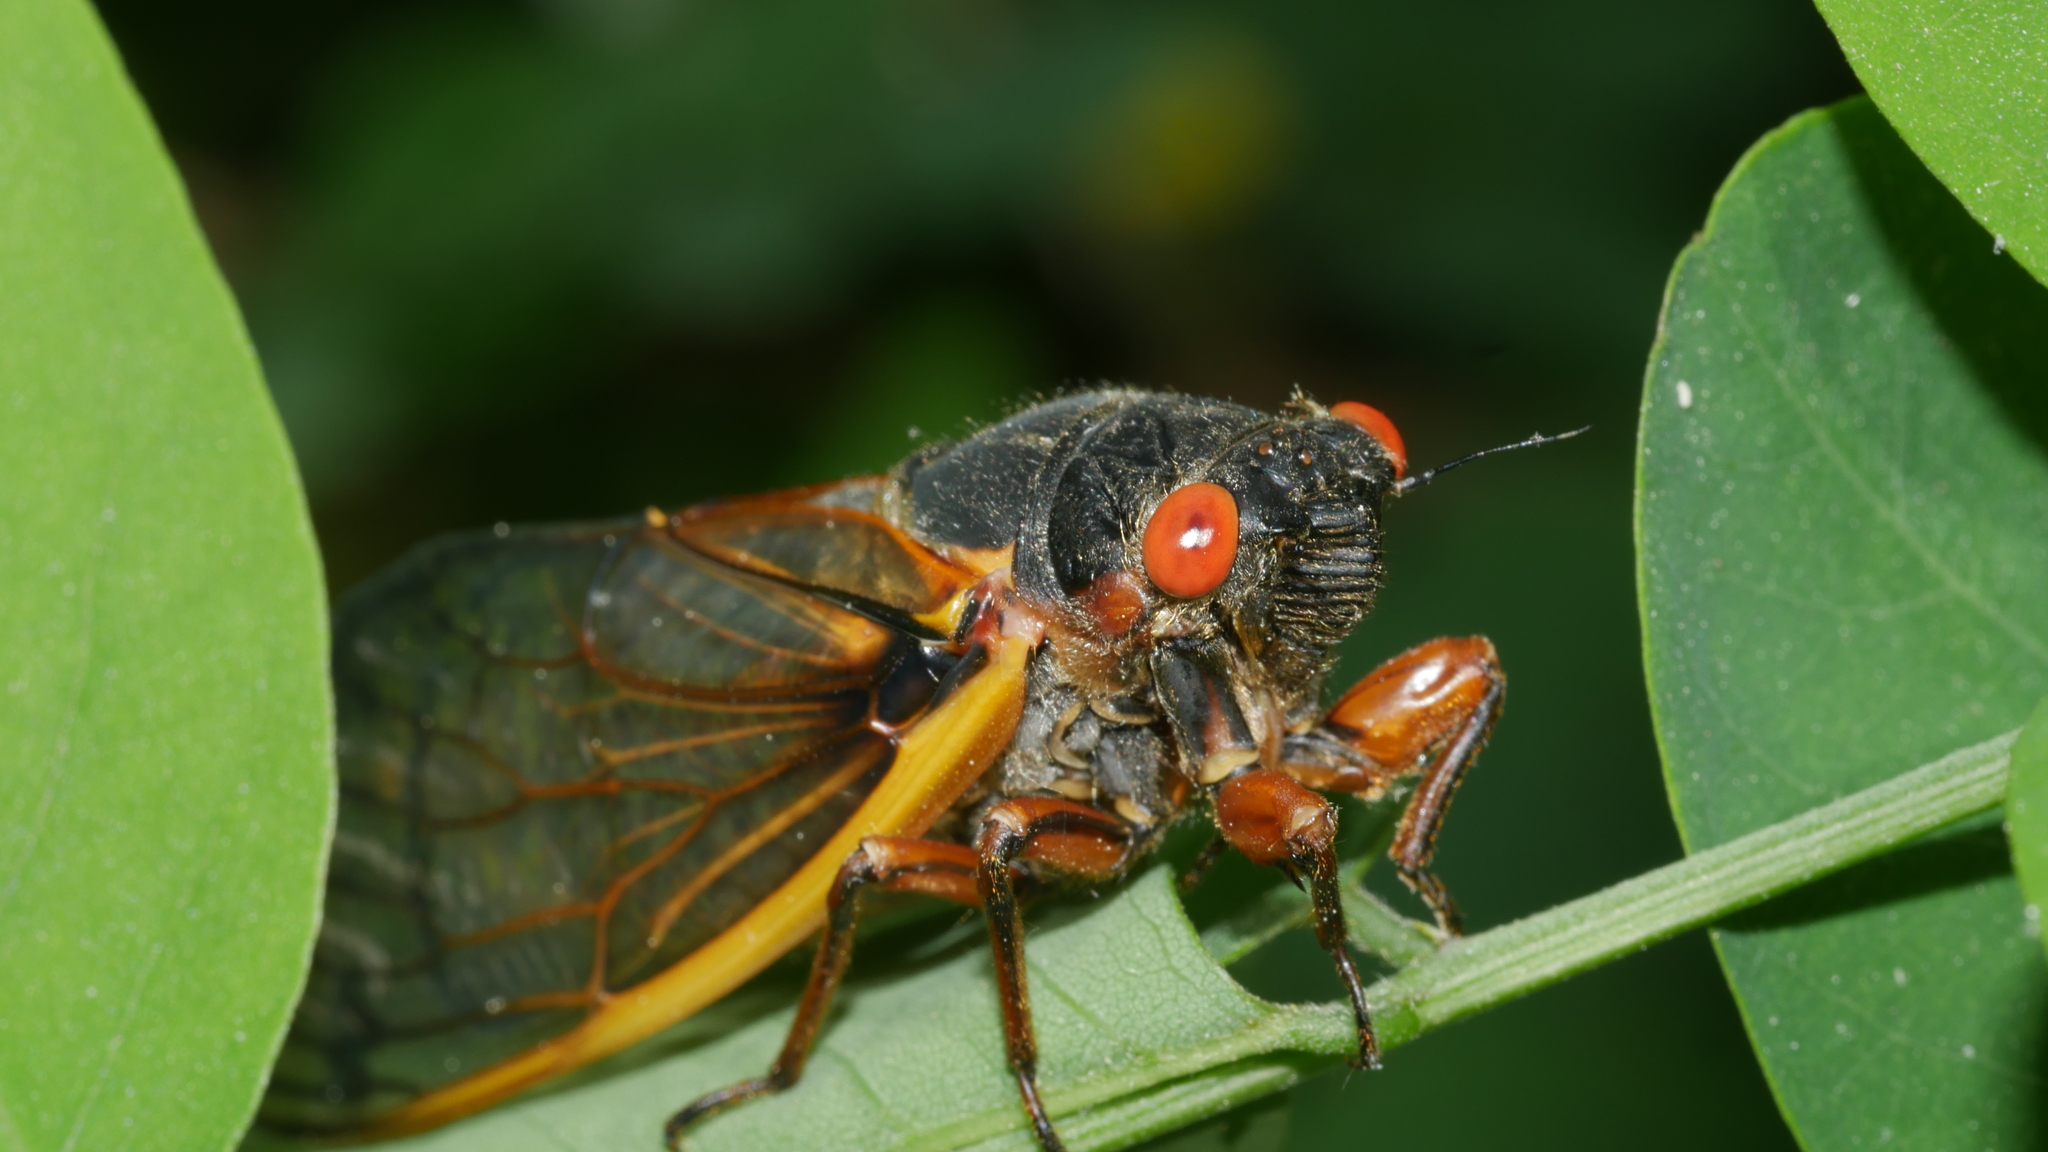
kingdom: Animalia
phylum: Arthropoda
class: Insecta
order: Hemiptera
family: Cicadidae
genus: Magicicada
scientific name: Magicicada septendecim
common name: Periodical cicada
